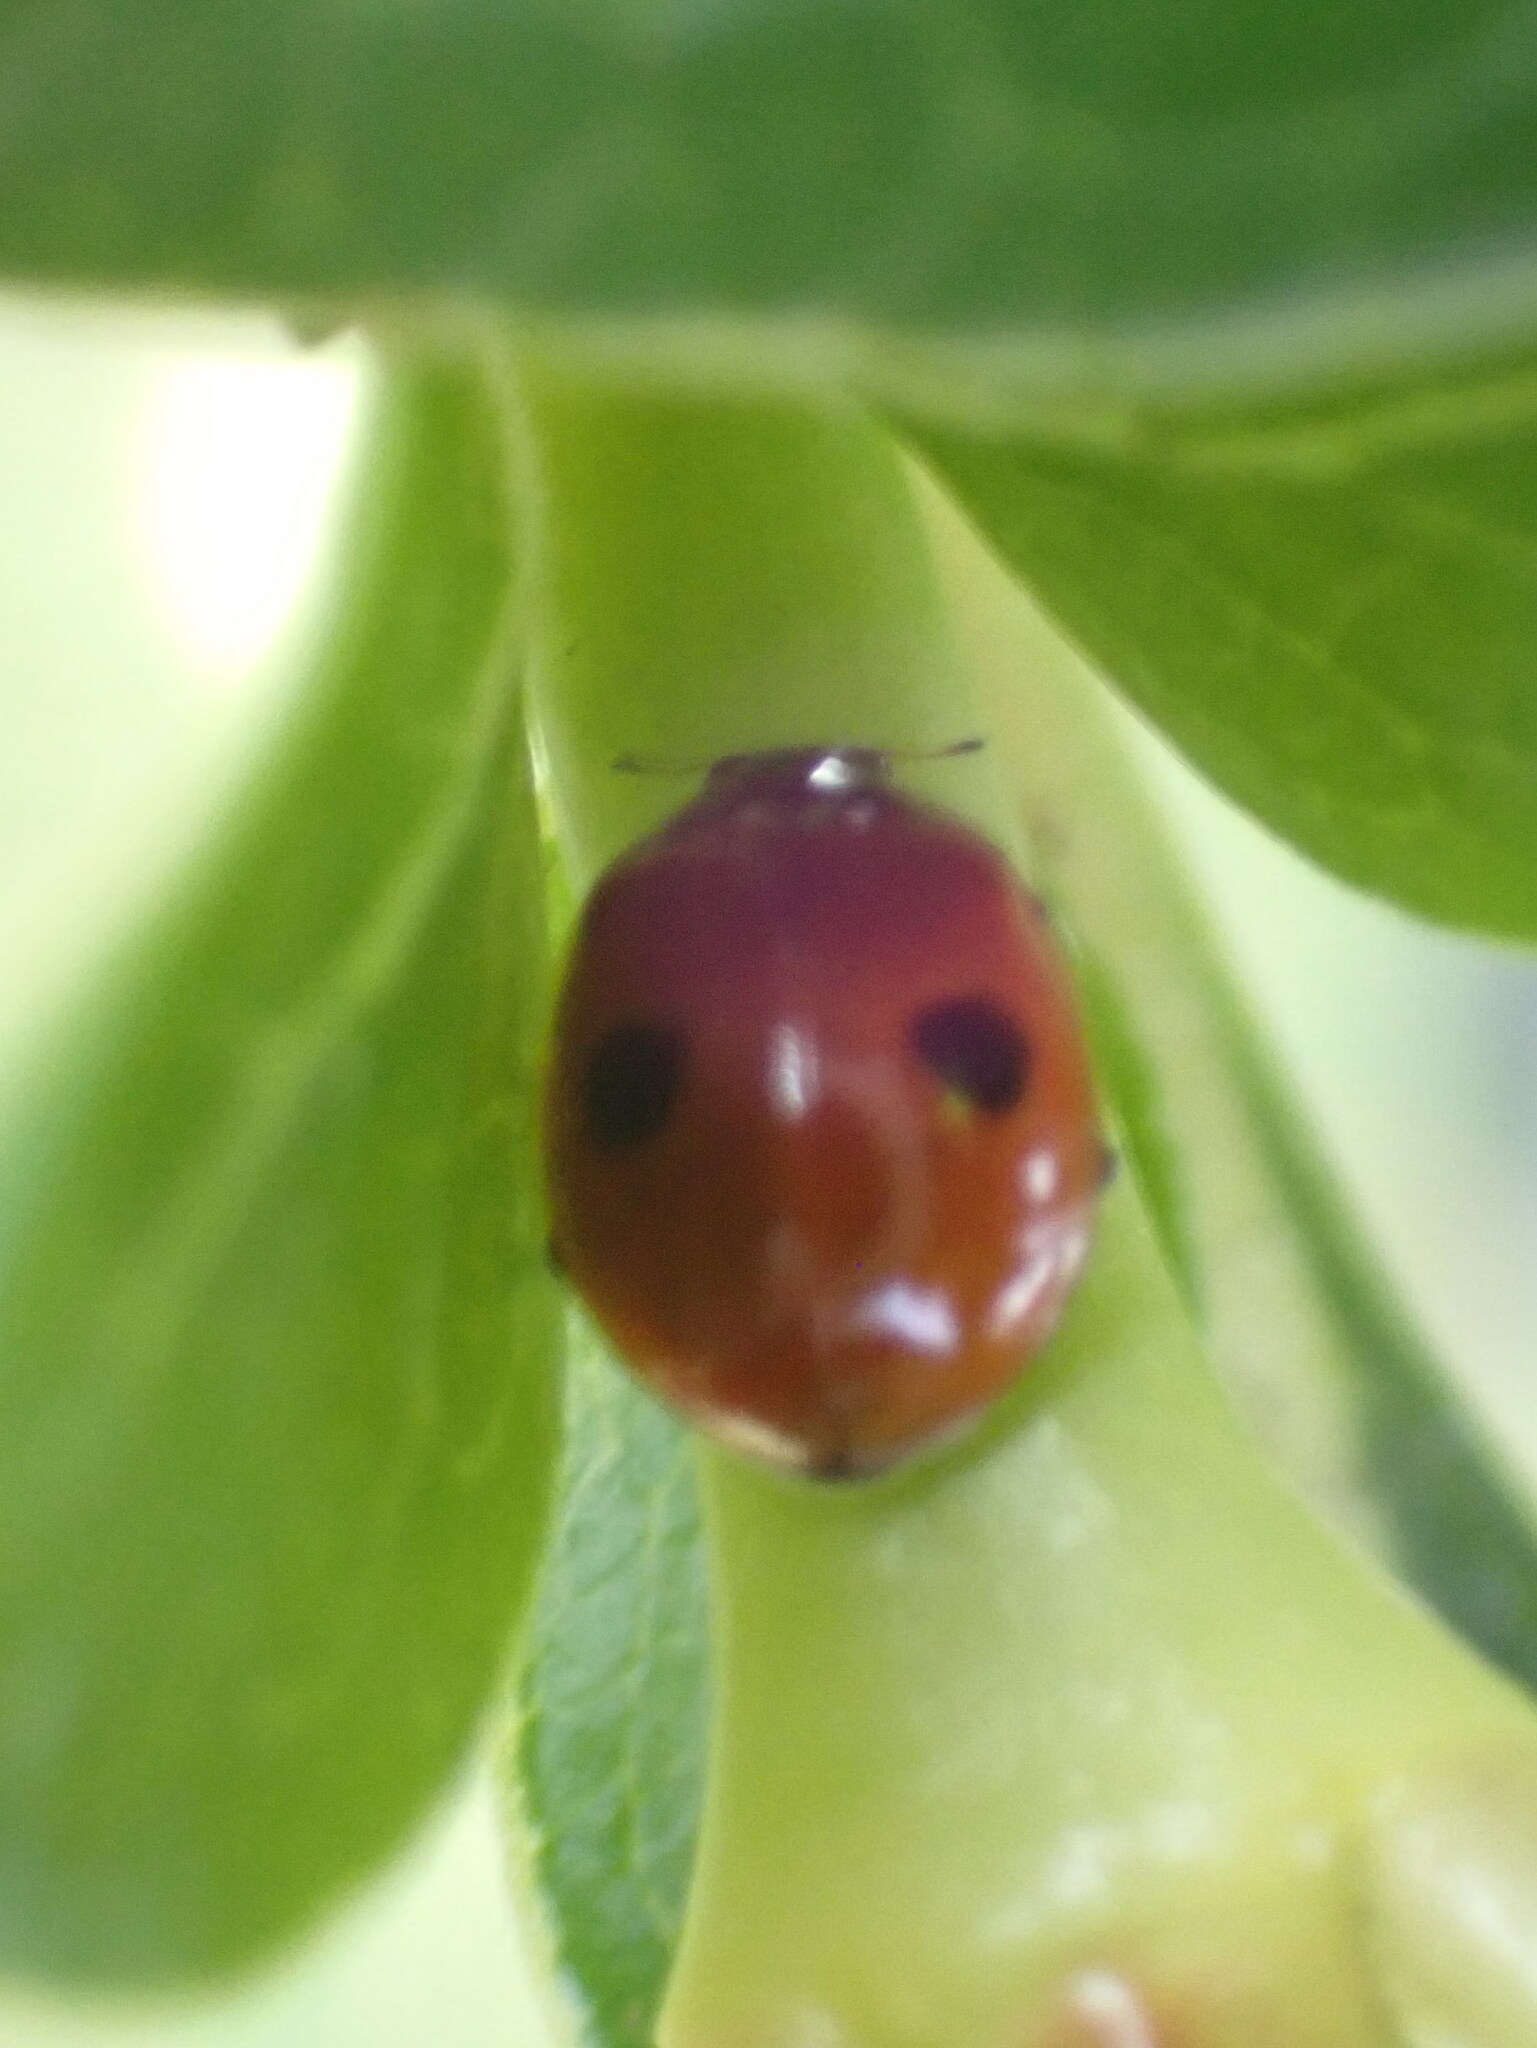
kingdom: Animalia
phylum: Arthropoda
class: Insecta
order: Coleoptera
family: Coccinellidae
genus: Adalia
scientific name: Adalia bipunctata
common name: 2-spot ladybird
